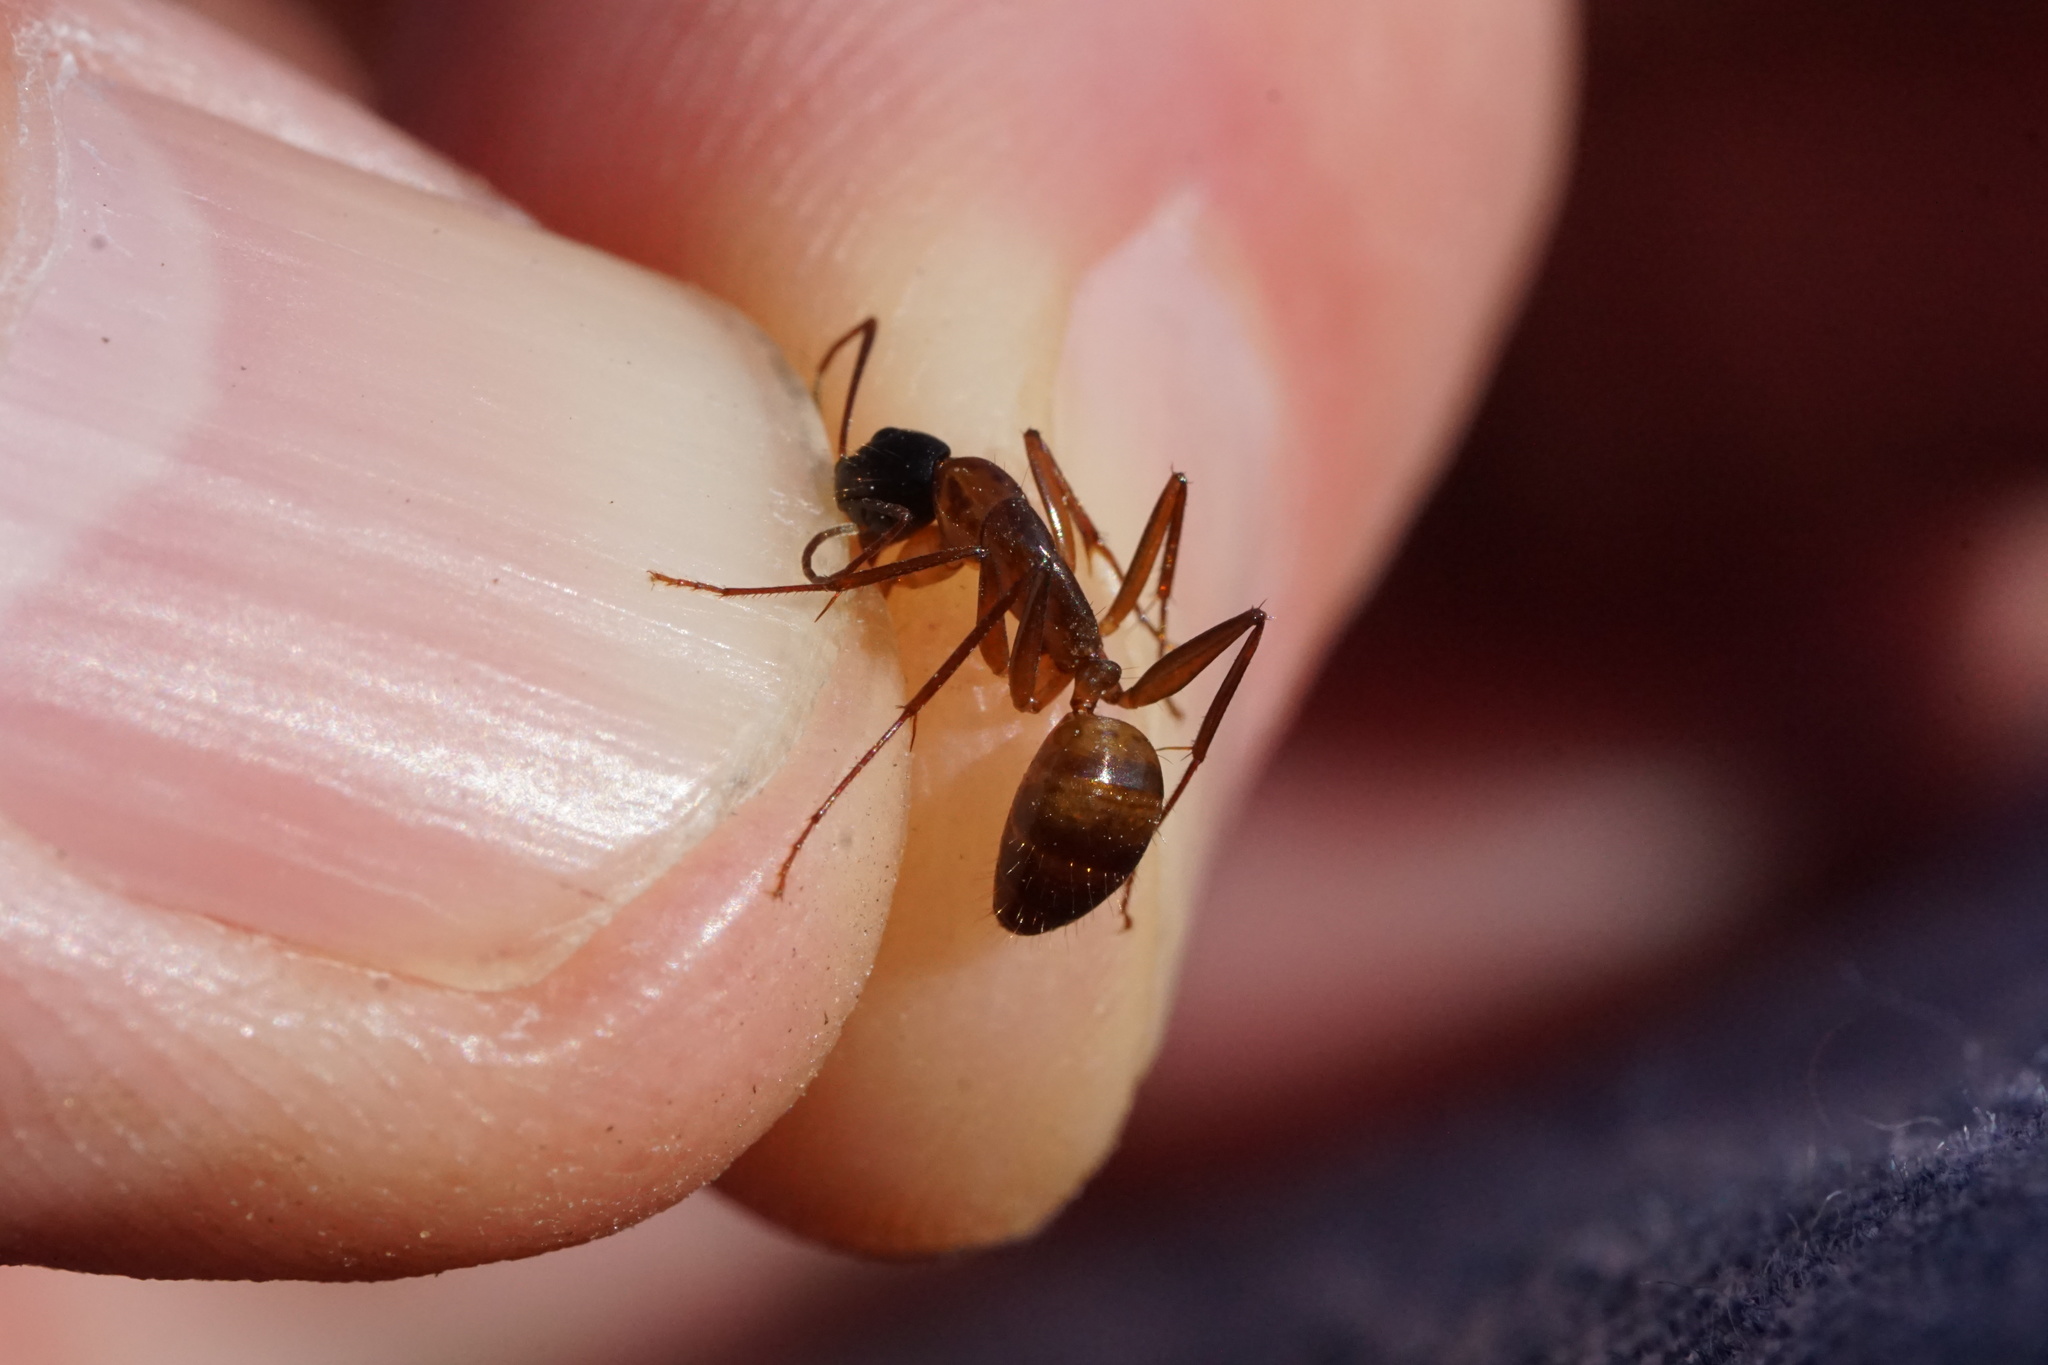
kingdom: Animalia
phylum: Arthropoda
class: Insecta
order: Hymenoptera
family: Formicidae
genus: Camponotus
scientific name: Camponotus americanus
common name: American carpenter ant
